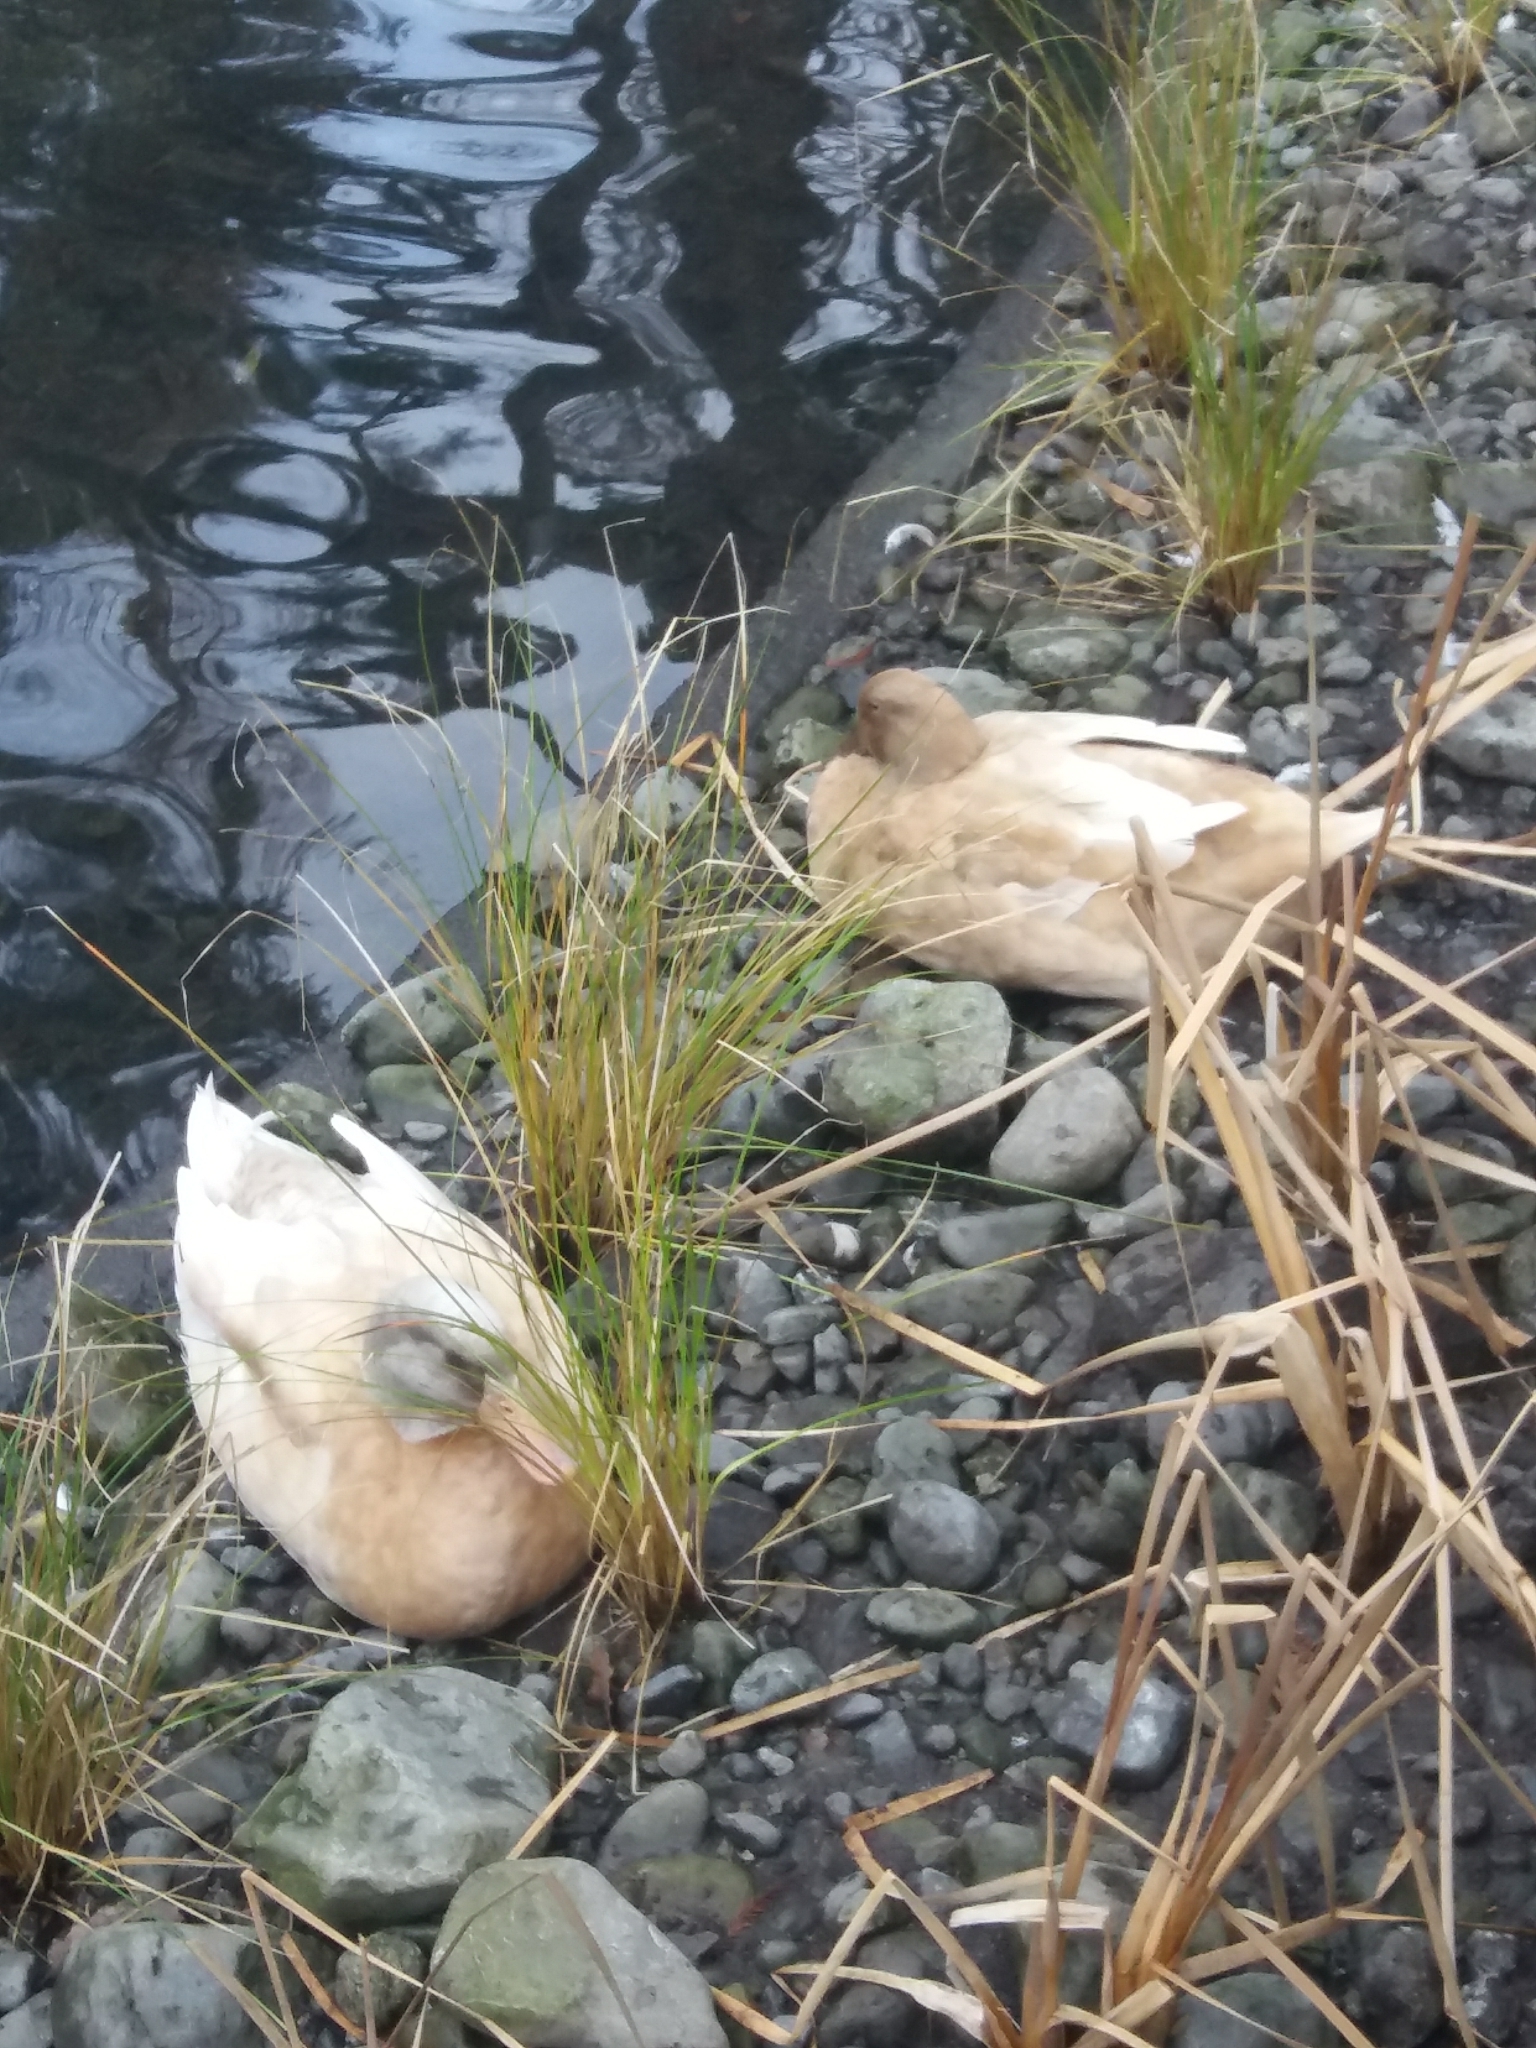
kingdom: Animalia
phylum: Chordata
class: Aves
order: Anseriformes
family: Anatidae
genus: Anas
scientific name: Anas platyrhynchos
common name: Mallard
